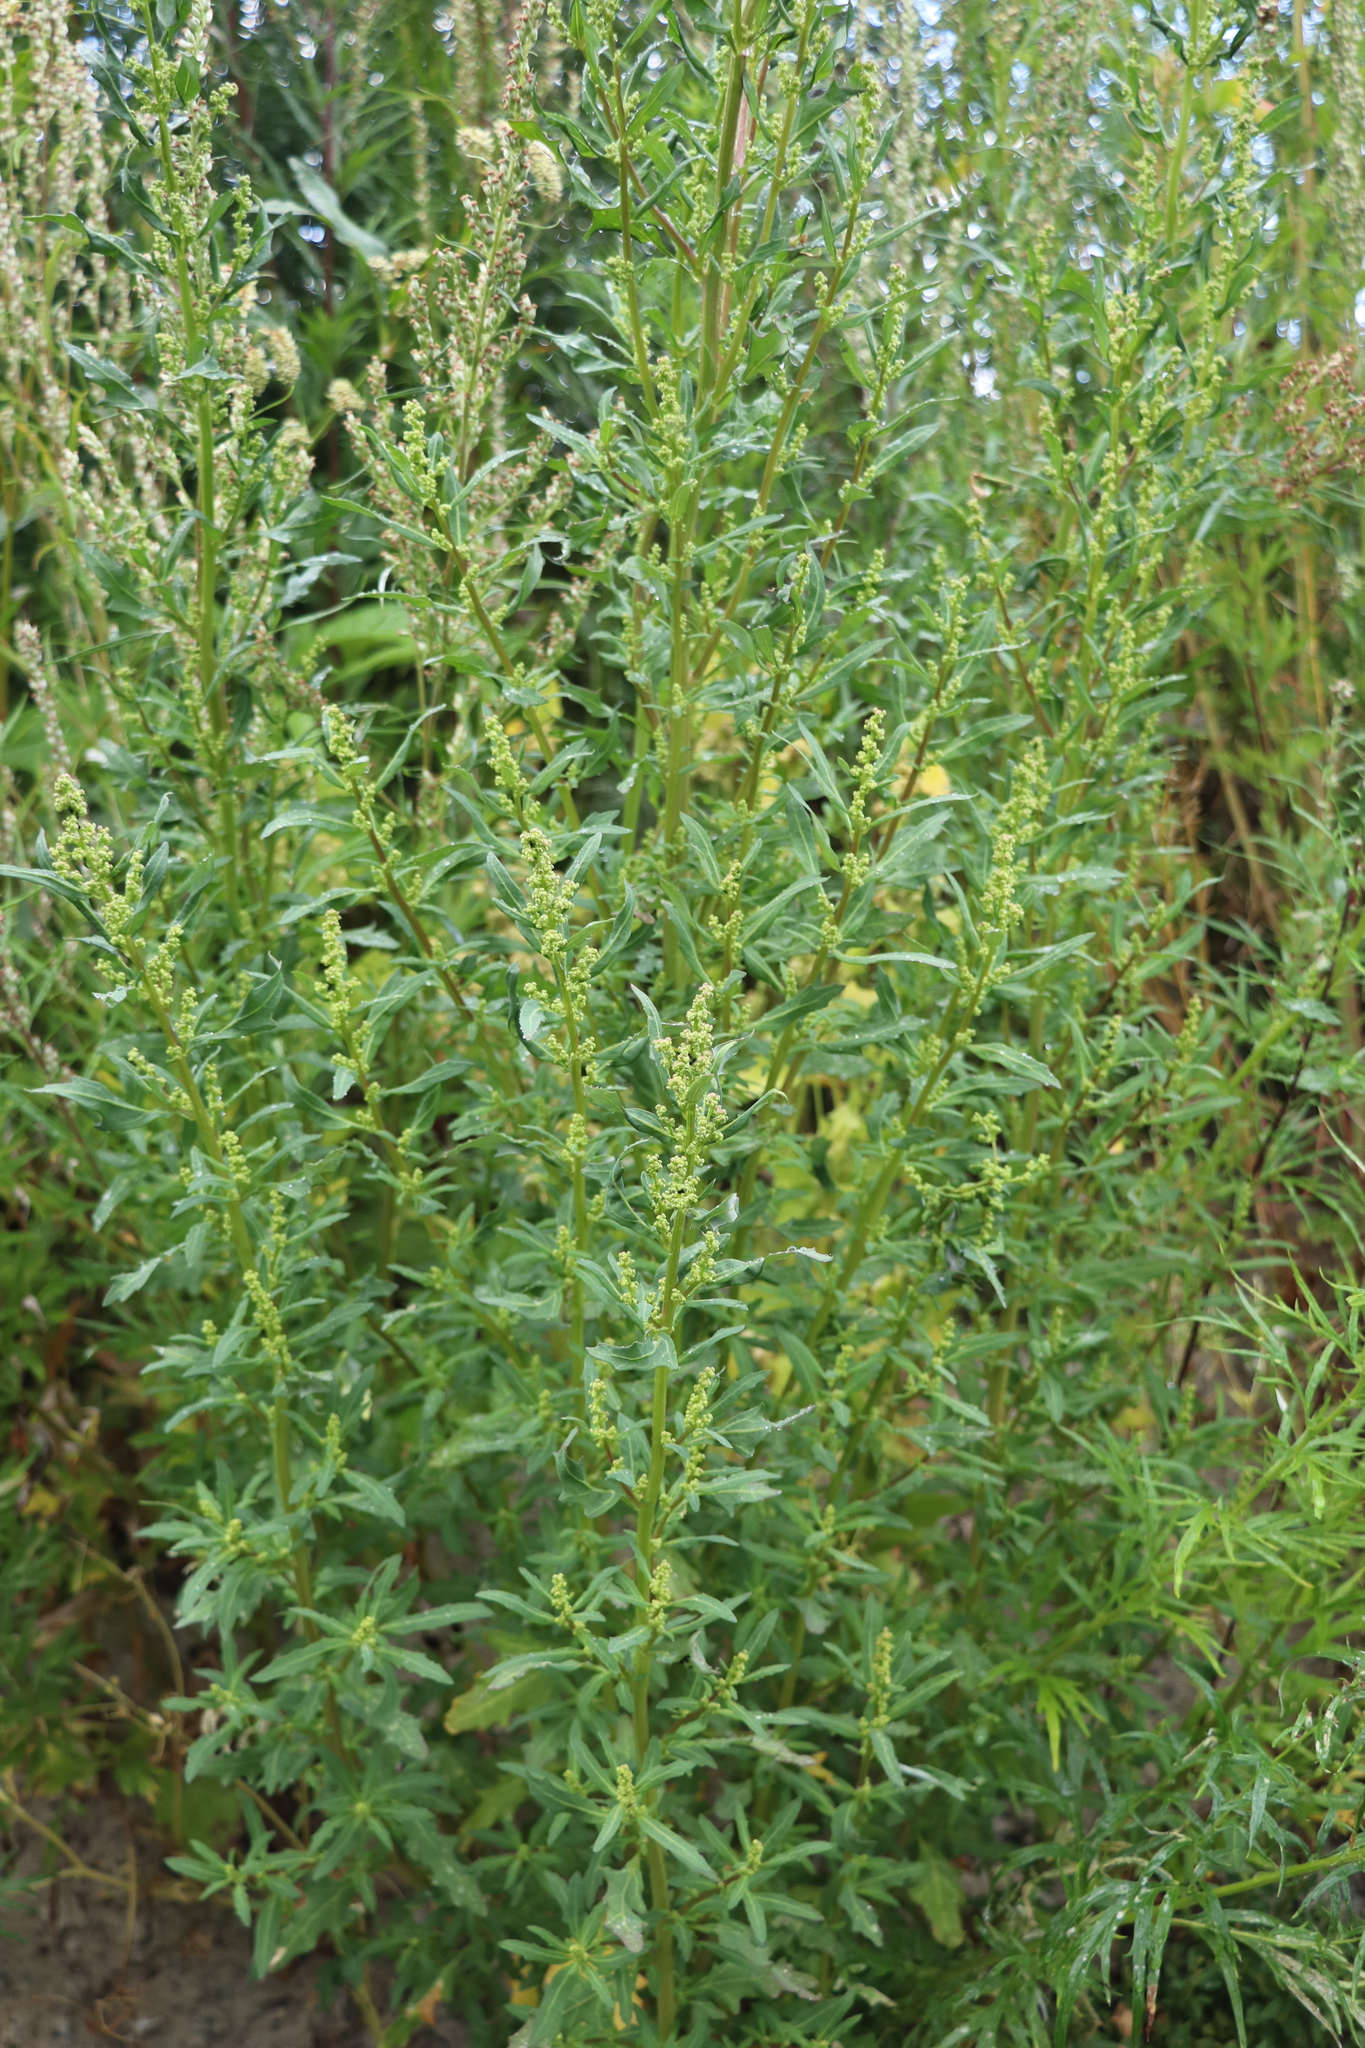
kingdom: Plantae
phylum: Tracheophyta
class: Magnoliopsida
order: Caryophyllales
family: Amaranthaceae
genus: Oxybasis
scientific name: Oxybasis glauca
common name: Glaucous goosefoot
